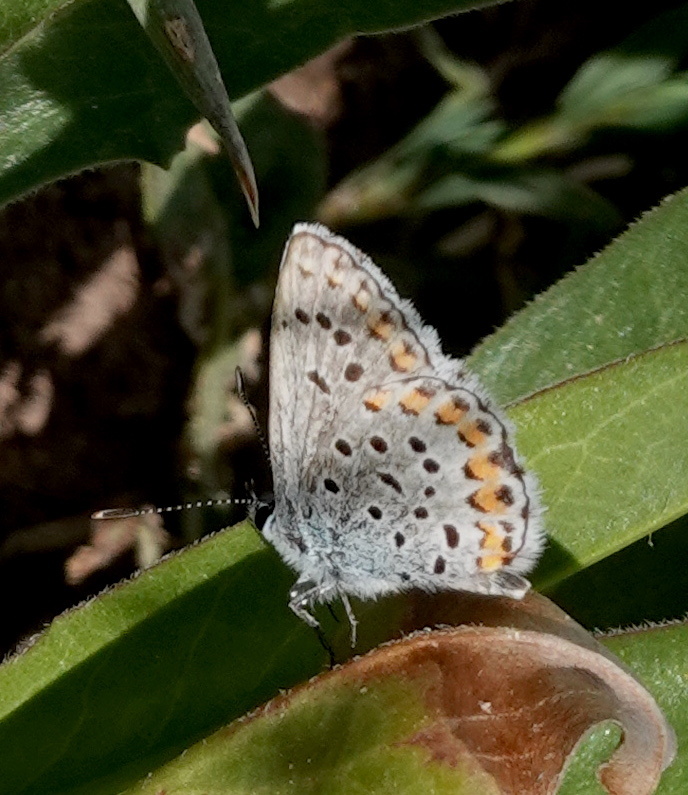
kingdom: Animalia
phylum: Arthropoda
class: Insecta
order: Lepidoptera
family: Lycaenidae
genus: Lycaeides
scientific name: Lycaeides melissa
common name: Melissa blue
